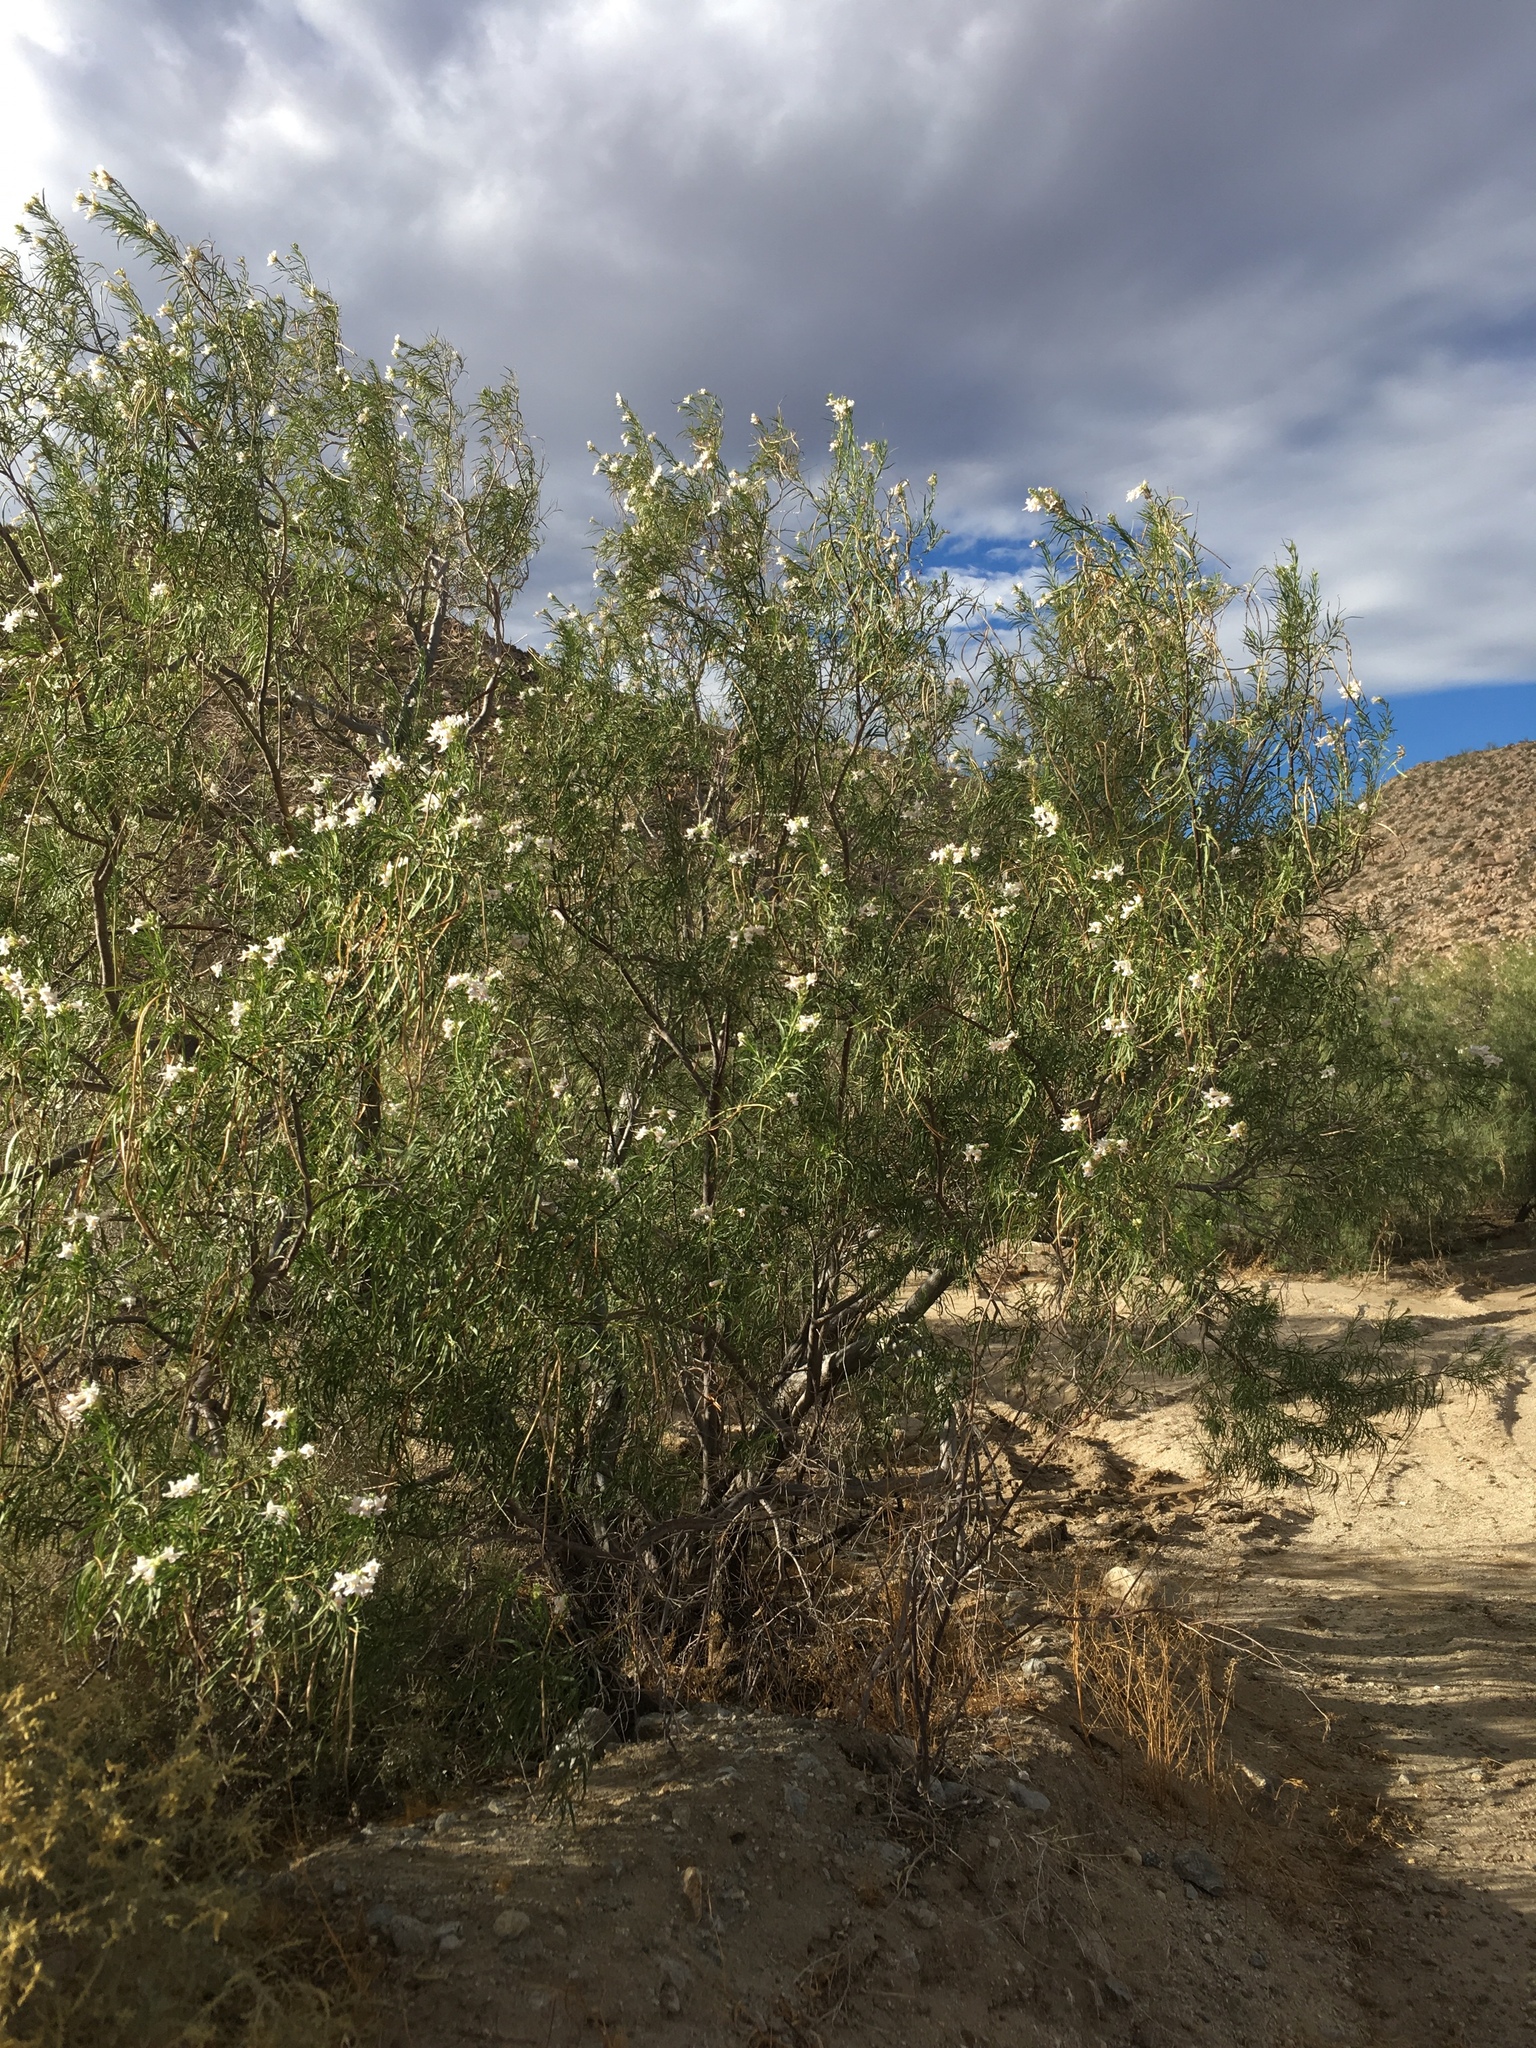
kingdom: Plantae
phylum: Tracheophyta
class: Magnoliopsida
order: Lamiales
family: Bignoniaceae
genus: Chilopsis
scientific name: Chilopsis linearis
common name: Desert-willow
